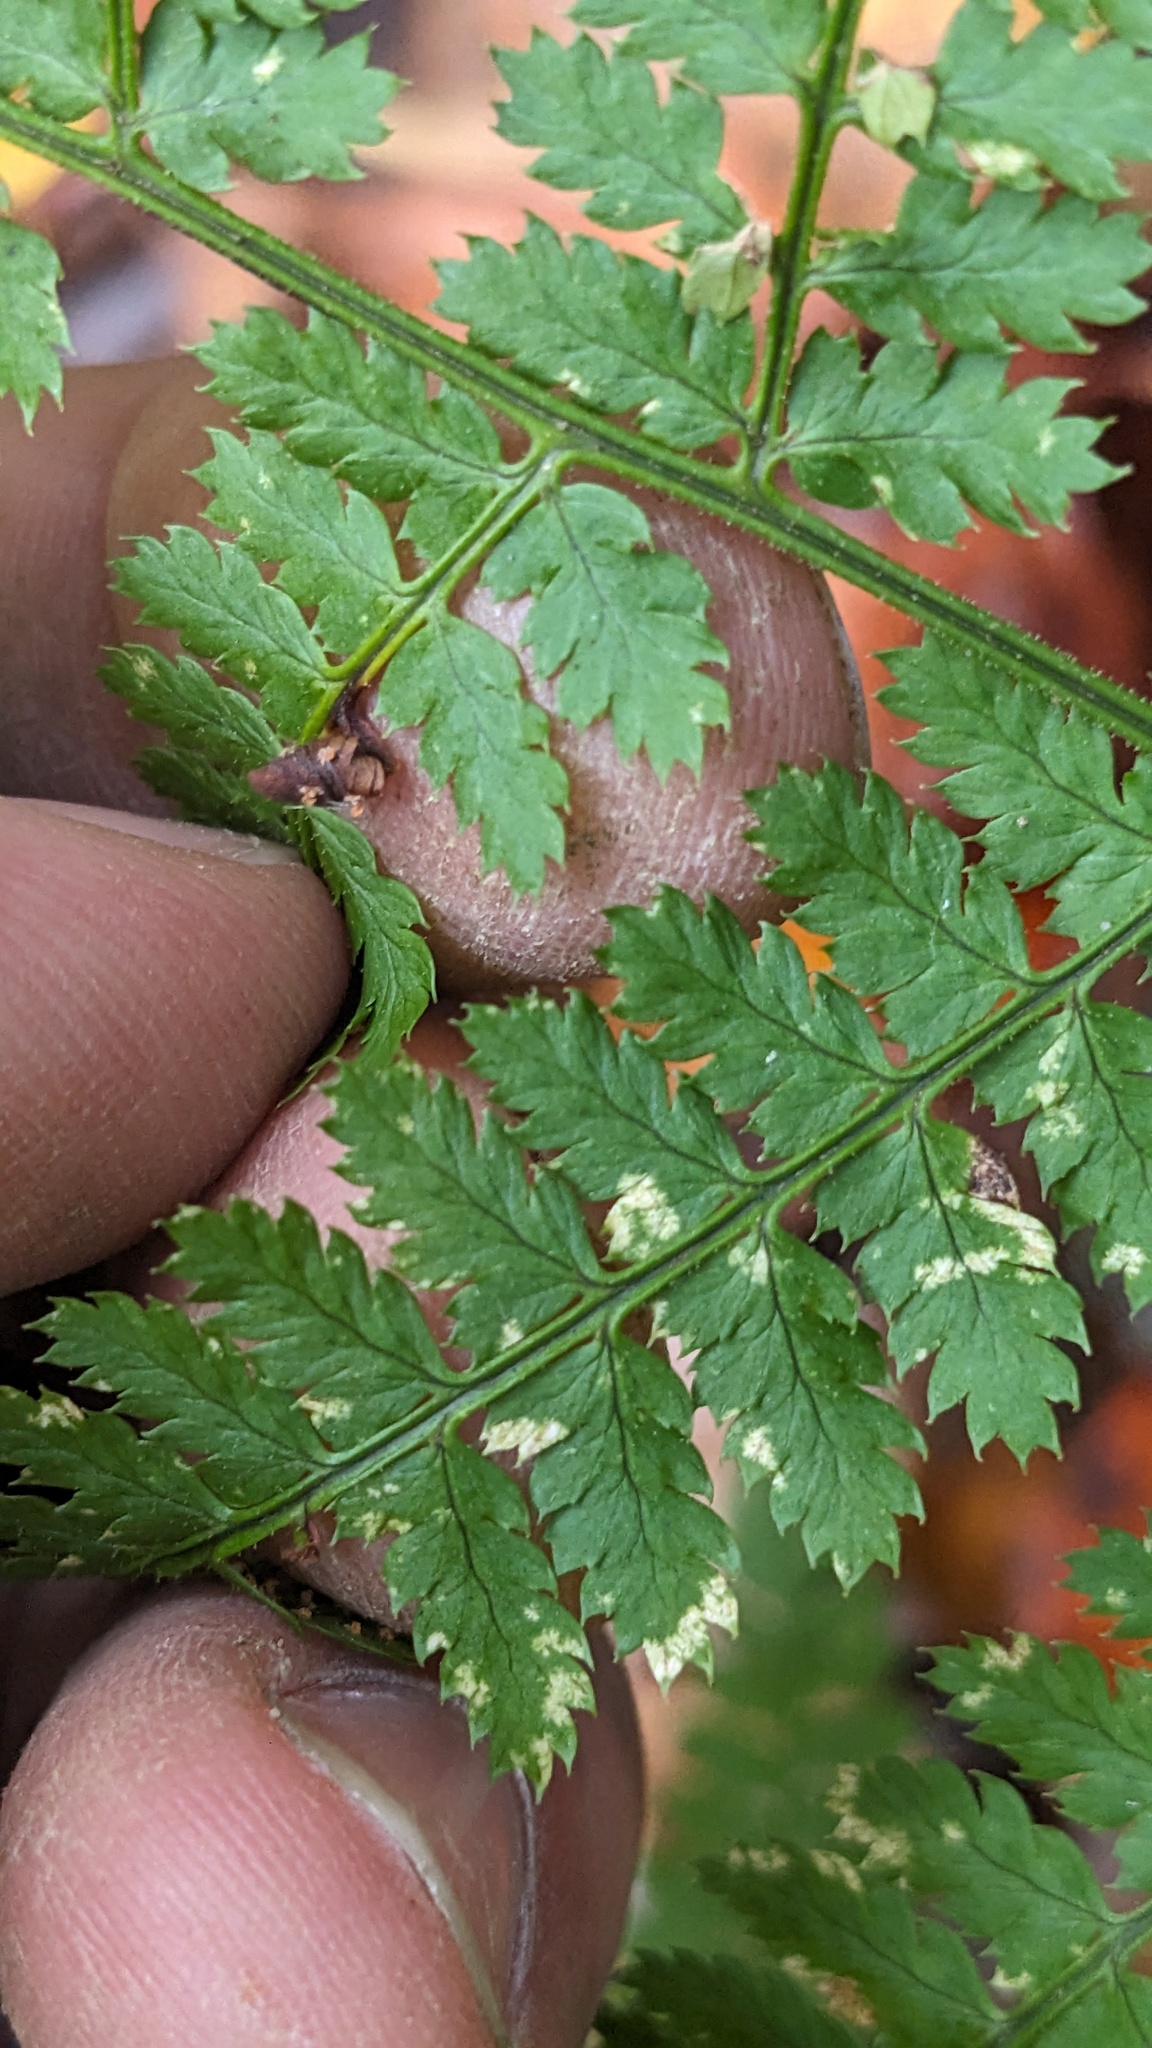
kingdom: Plantae
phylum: Tracheophyta
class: Polypodiopsida
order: Polypodiales
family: Dryopteridaceae
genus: Dryopteris
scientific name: Dryopteris intermedia
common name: Evergreen wood fern
